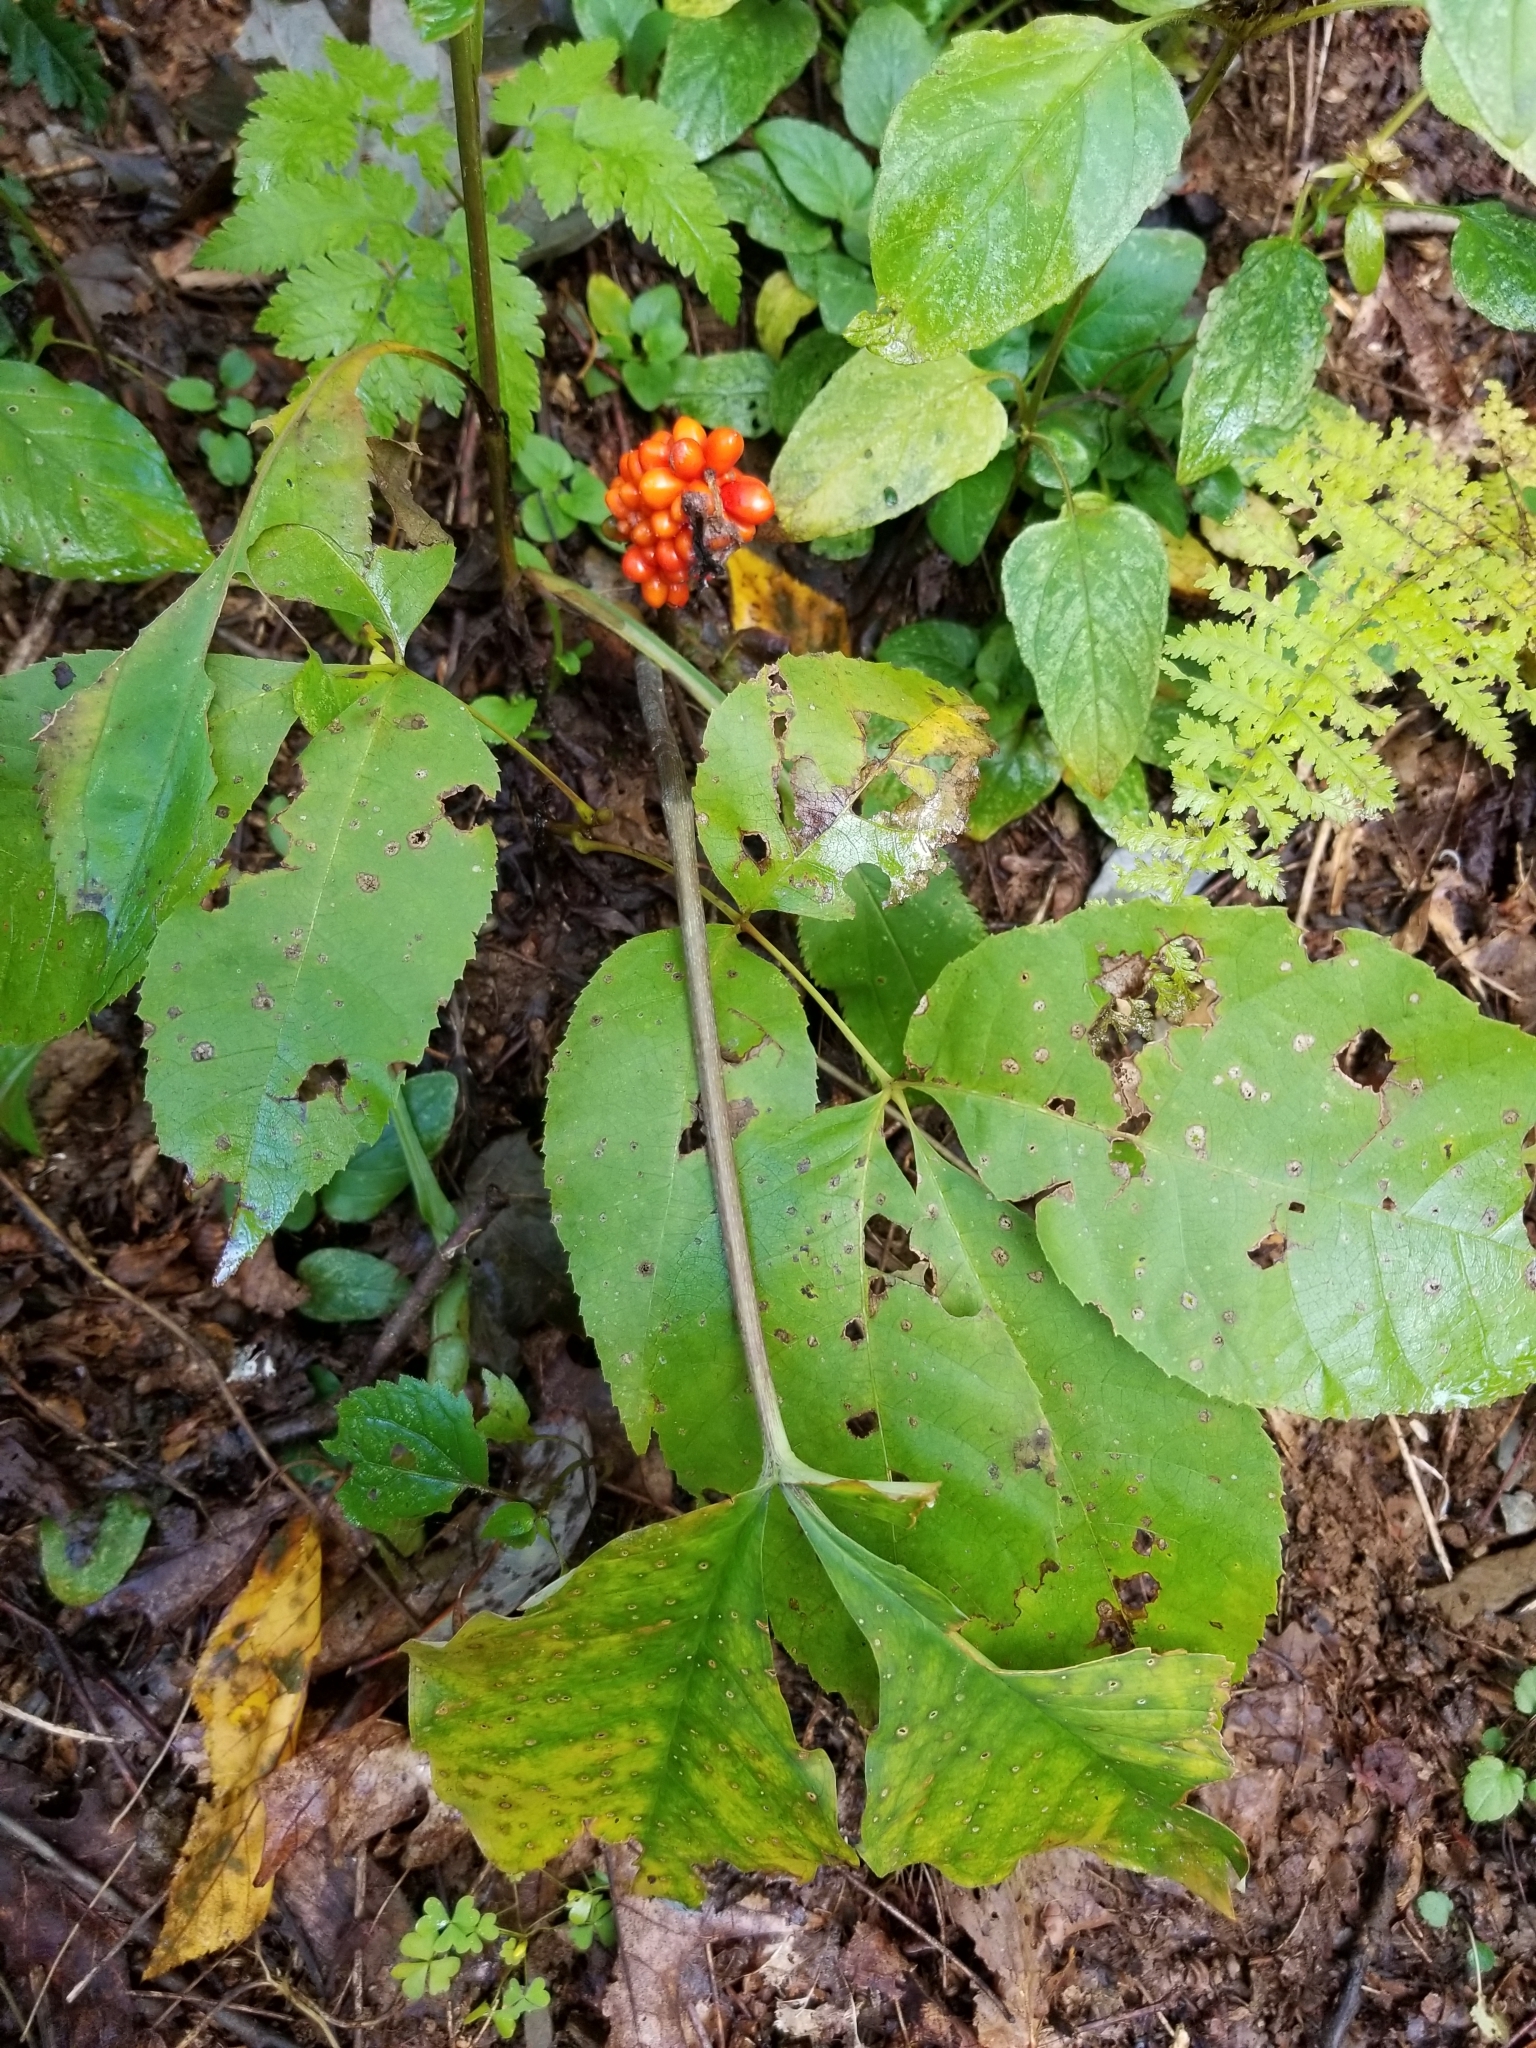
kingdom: Plantae
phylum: Tracheophyta
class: Liliopsida
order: Alismatales
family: Araceae
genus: Arisaema
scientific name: Arisaema triphyllum
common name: Jack-in-the-pulpit
